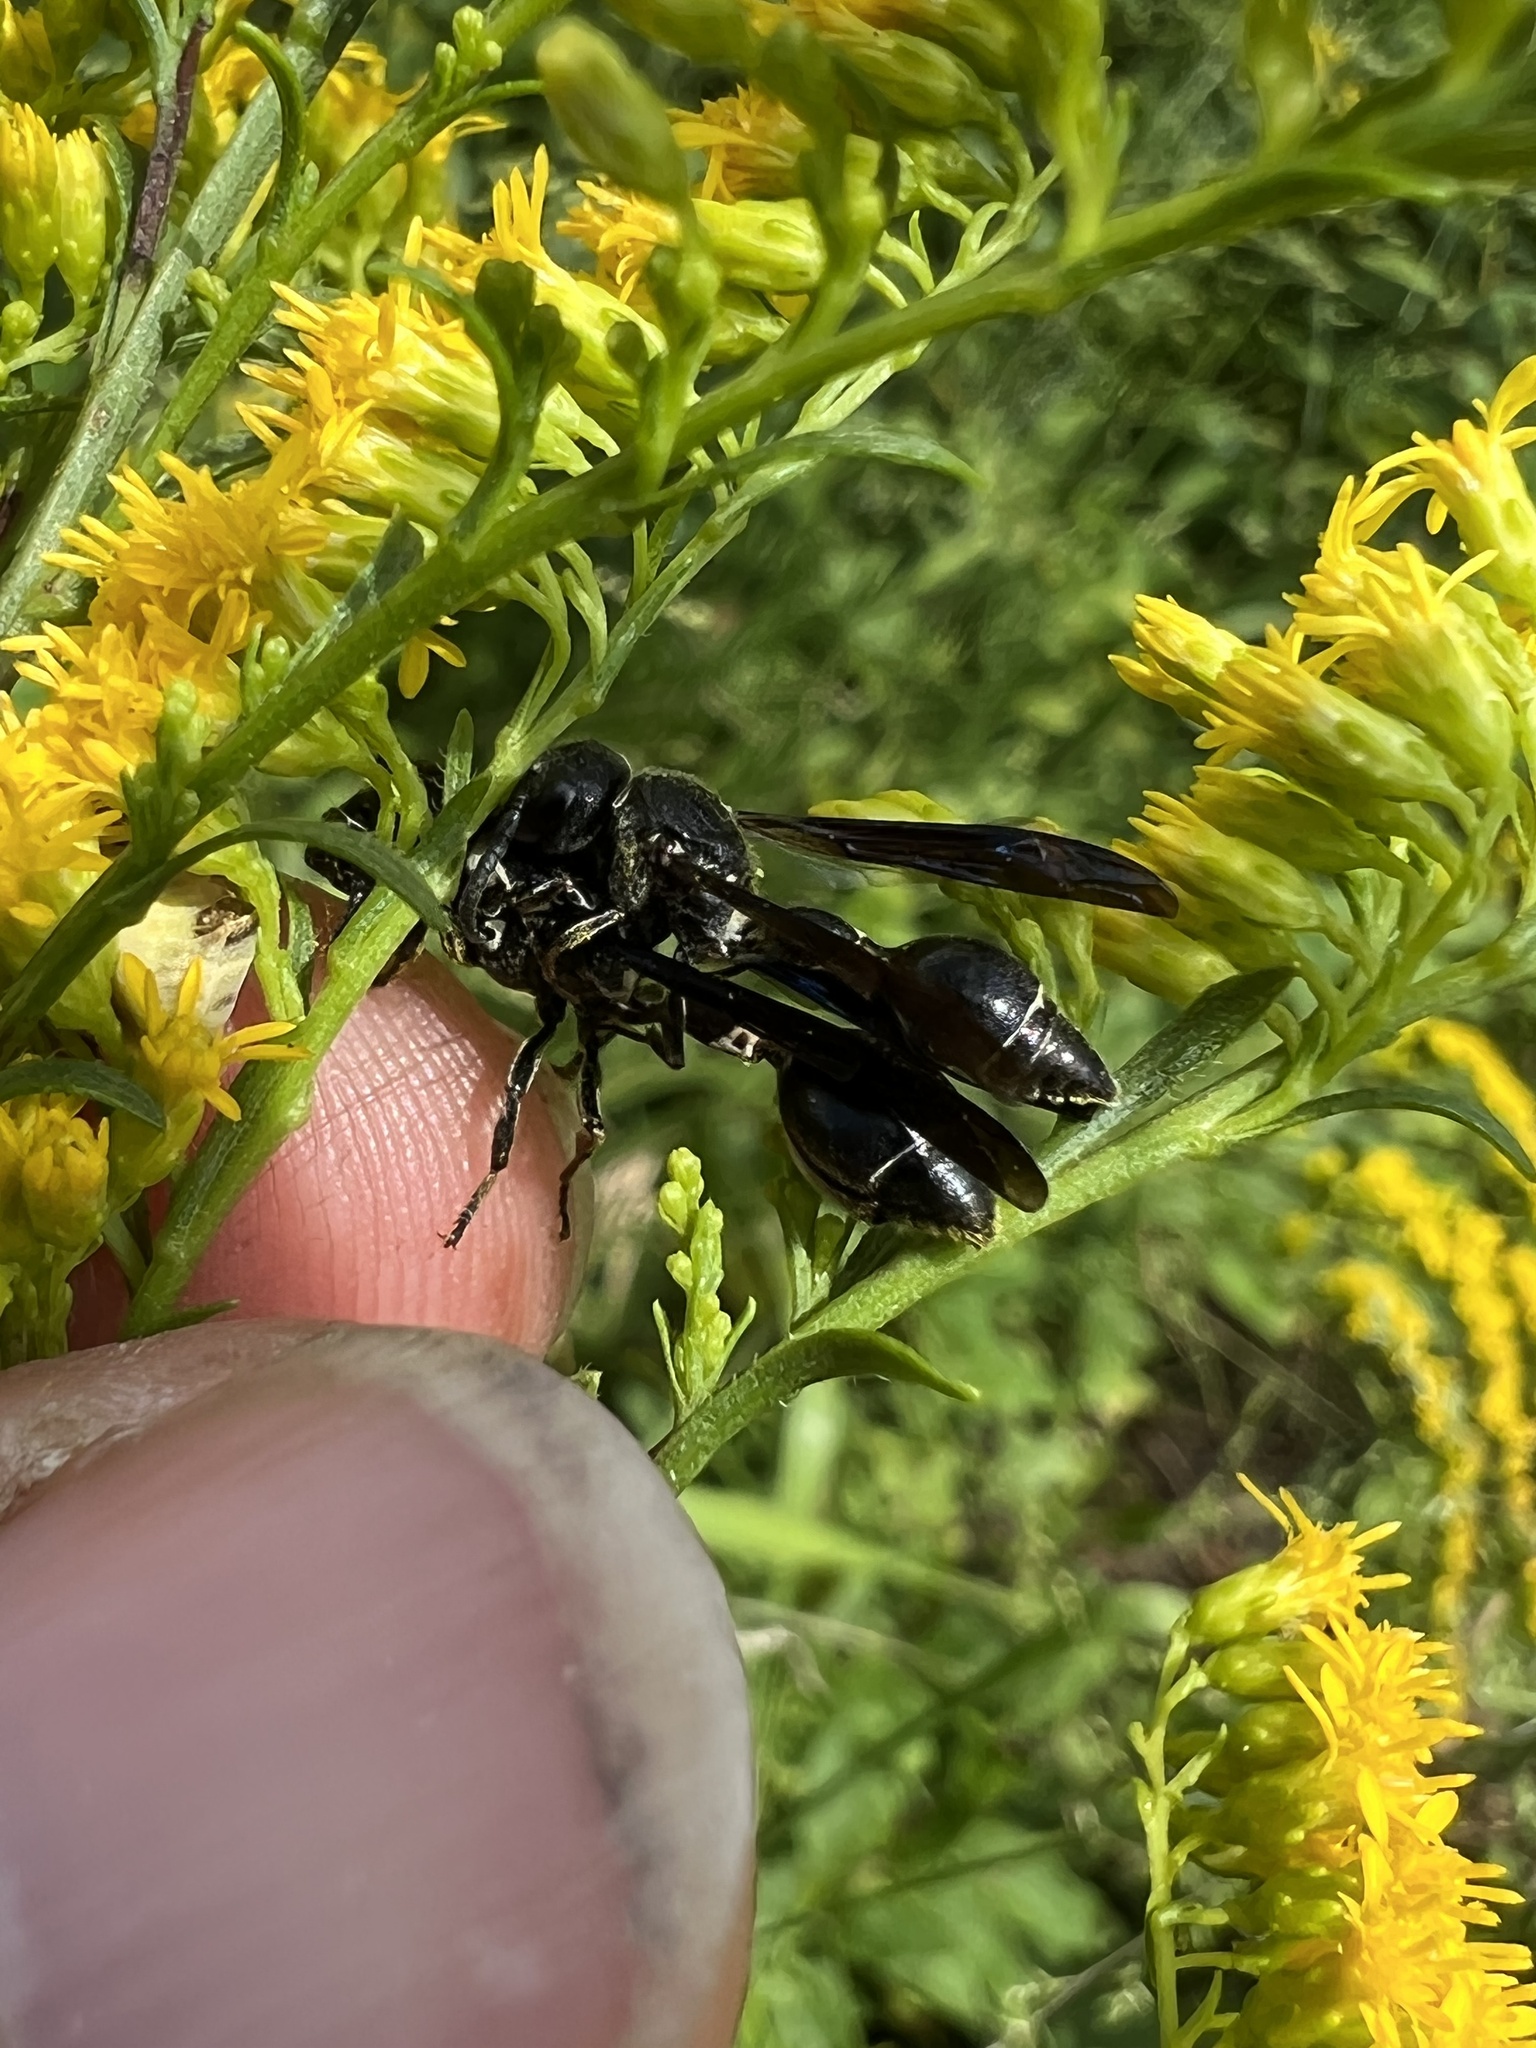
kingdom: Animalia
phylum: Arthropoda
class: Insecta
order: Hymenoptera
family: Eumenidae
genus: Zethus
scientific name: Zethus spinipes
